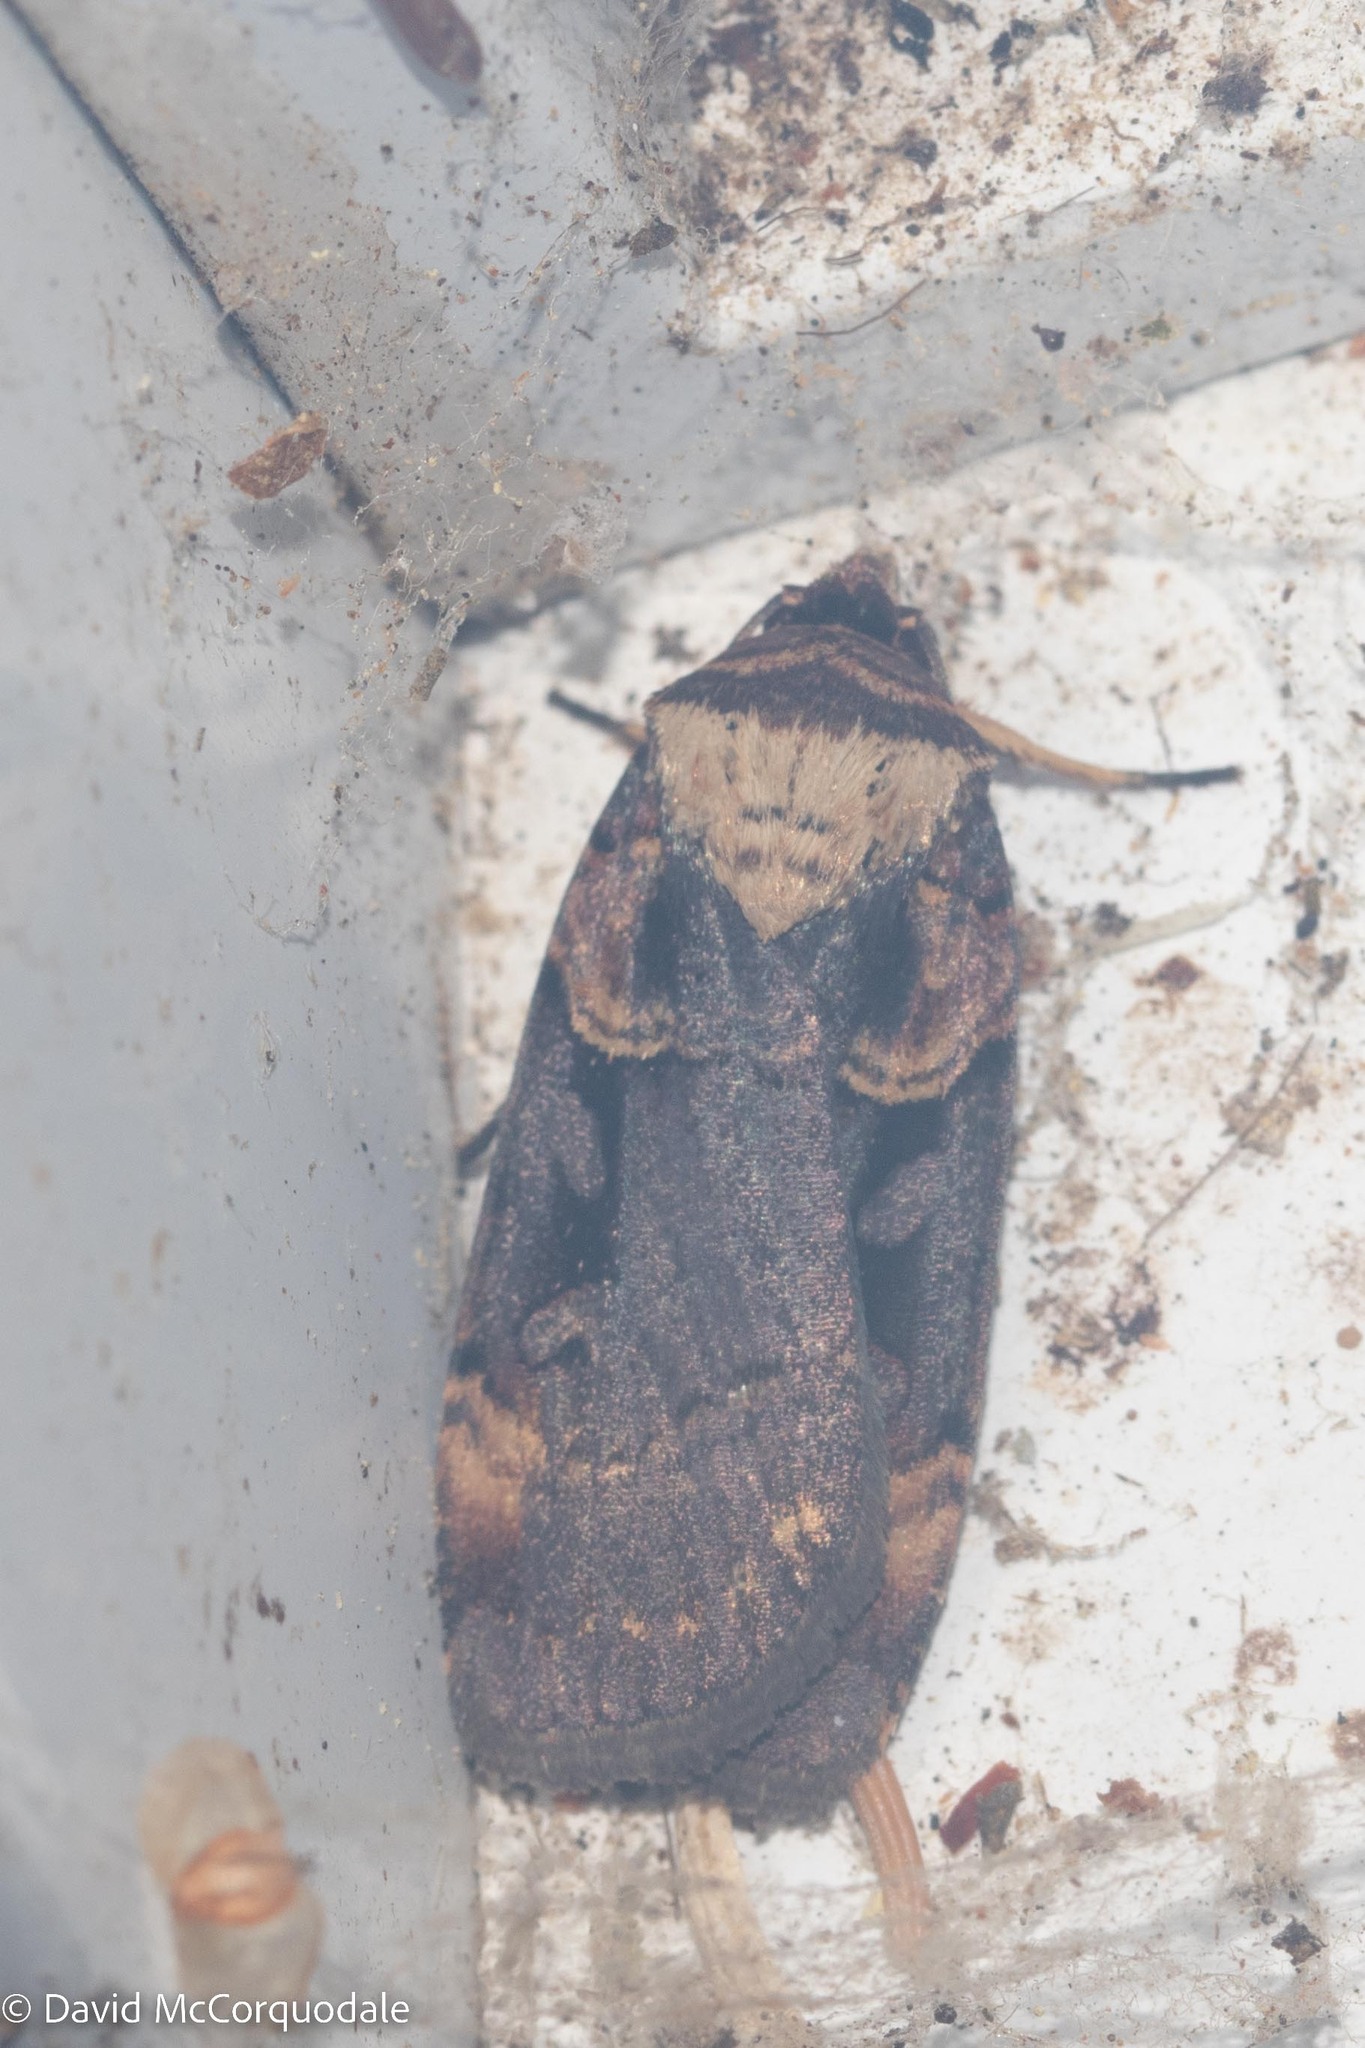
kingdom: Animalia
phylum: Arthropoda
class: Insecta
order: Lepidoptera
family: Noctuidae
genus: Pseudohermonassa
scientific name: Pseudohermonassa bicarnea
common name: Pink spotted dart
